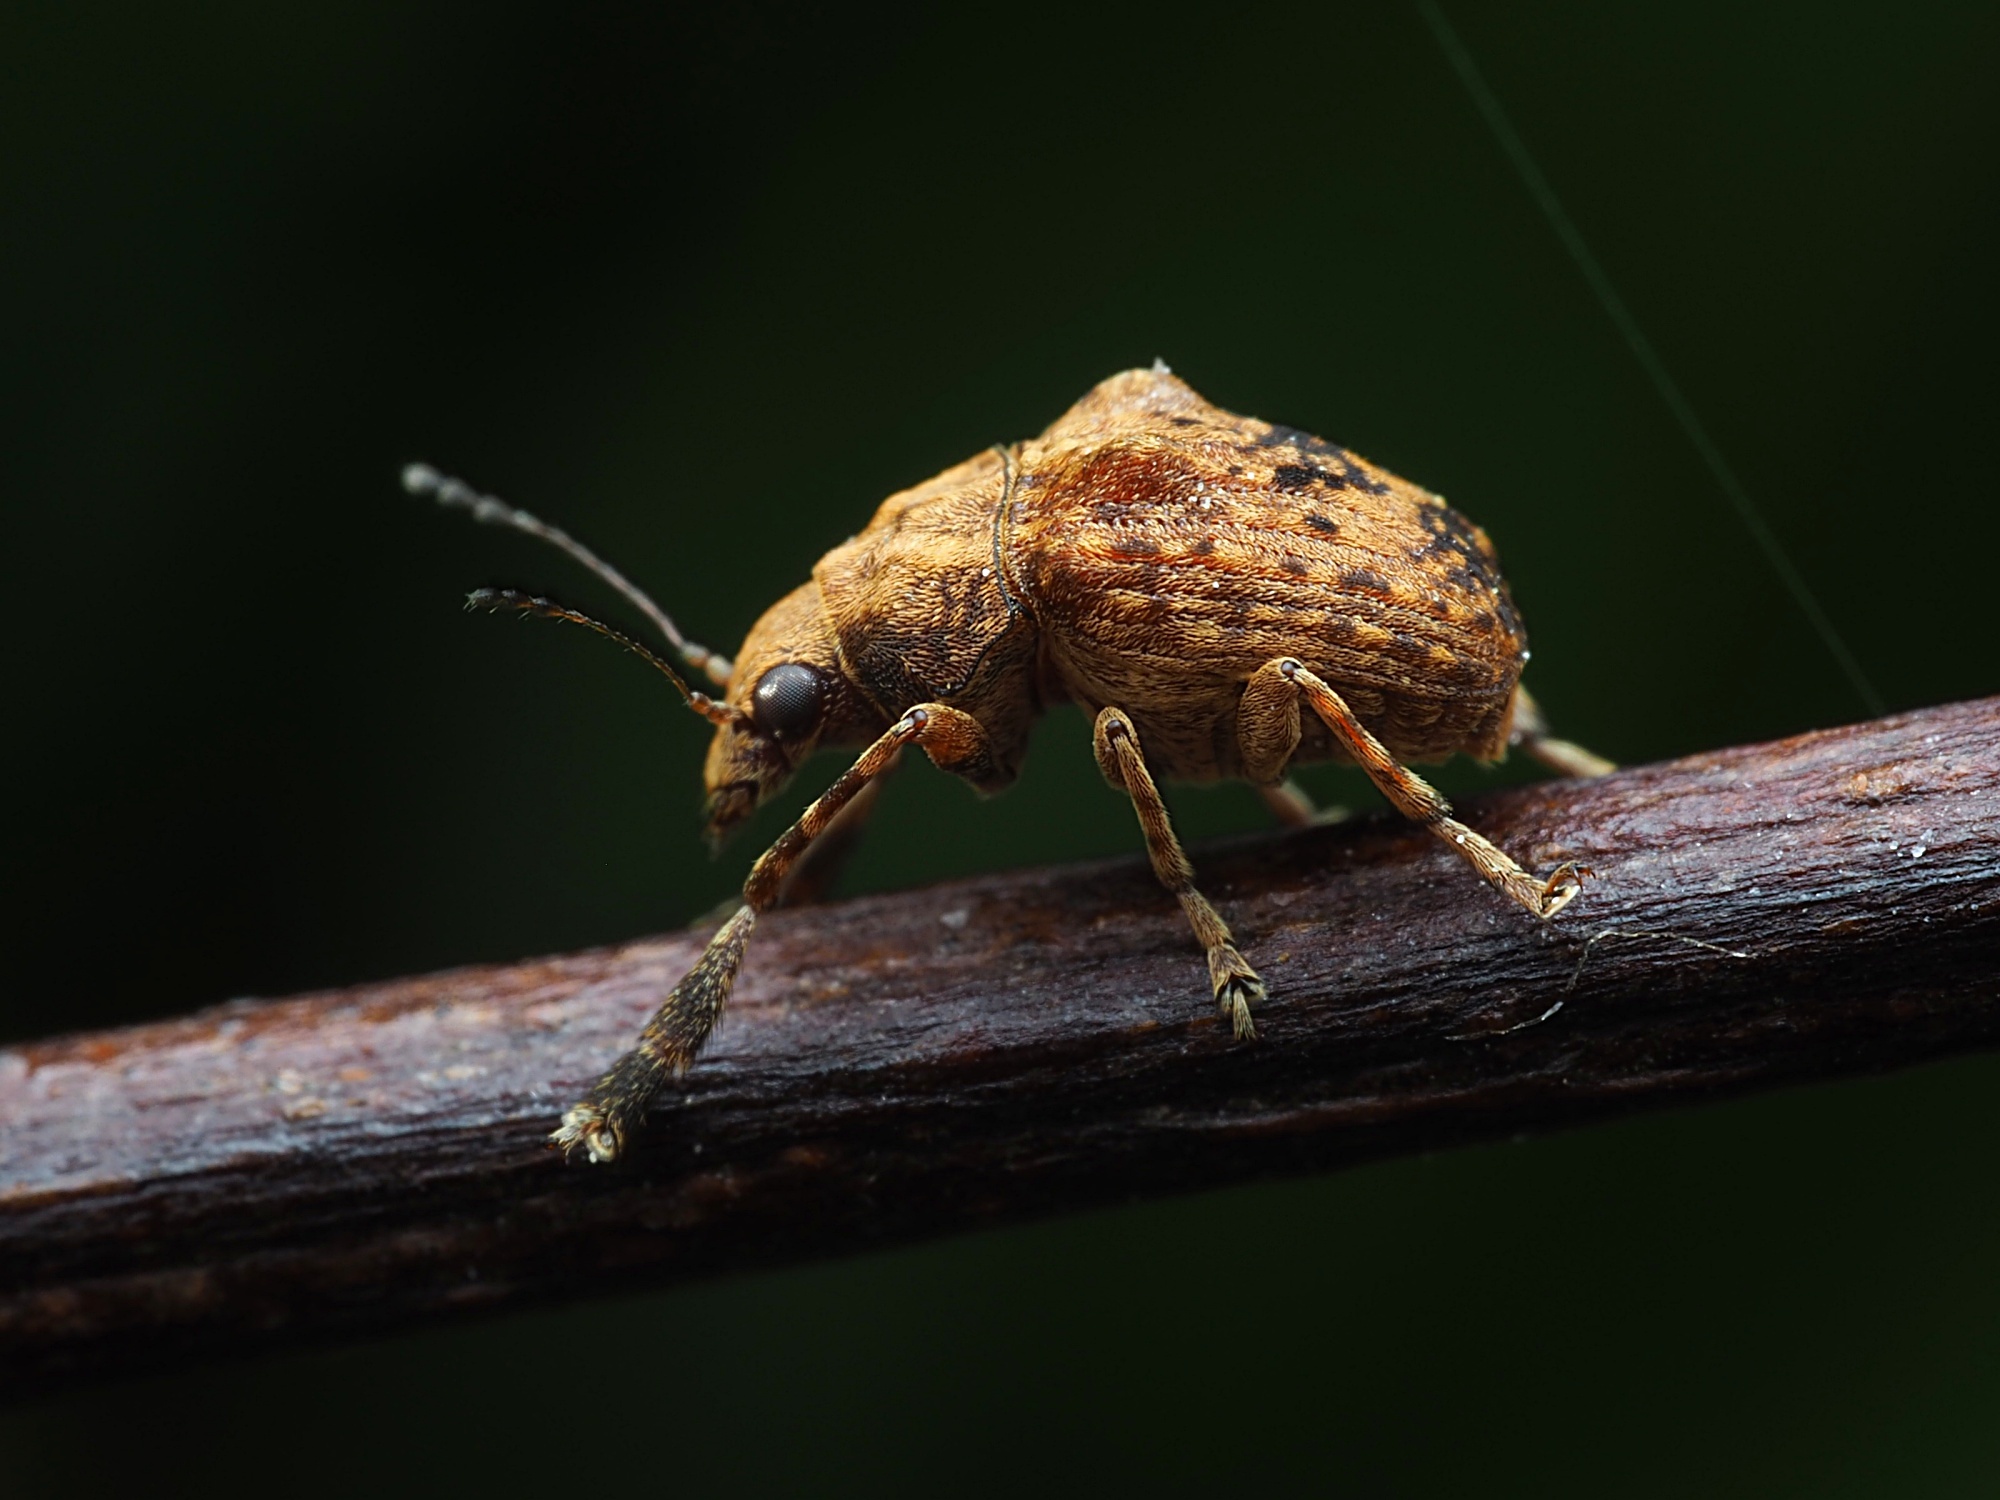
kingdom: Animalia
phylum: Arthropoda
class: Insecta
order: Coleoptera
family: Anthribidae
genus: Araecerus
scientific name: Araecerus
